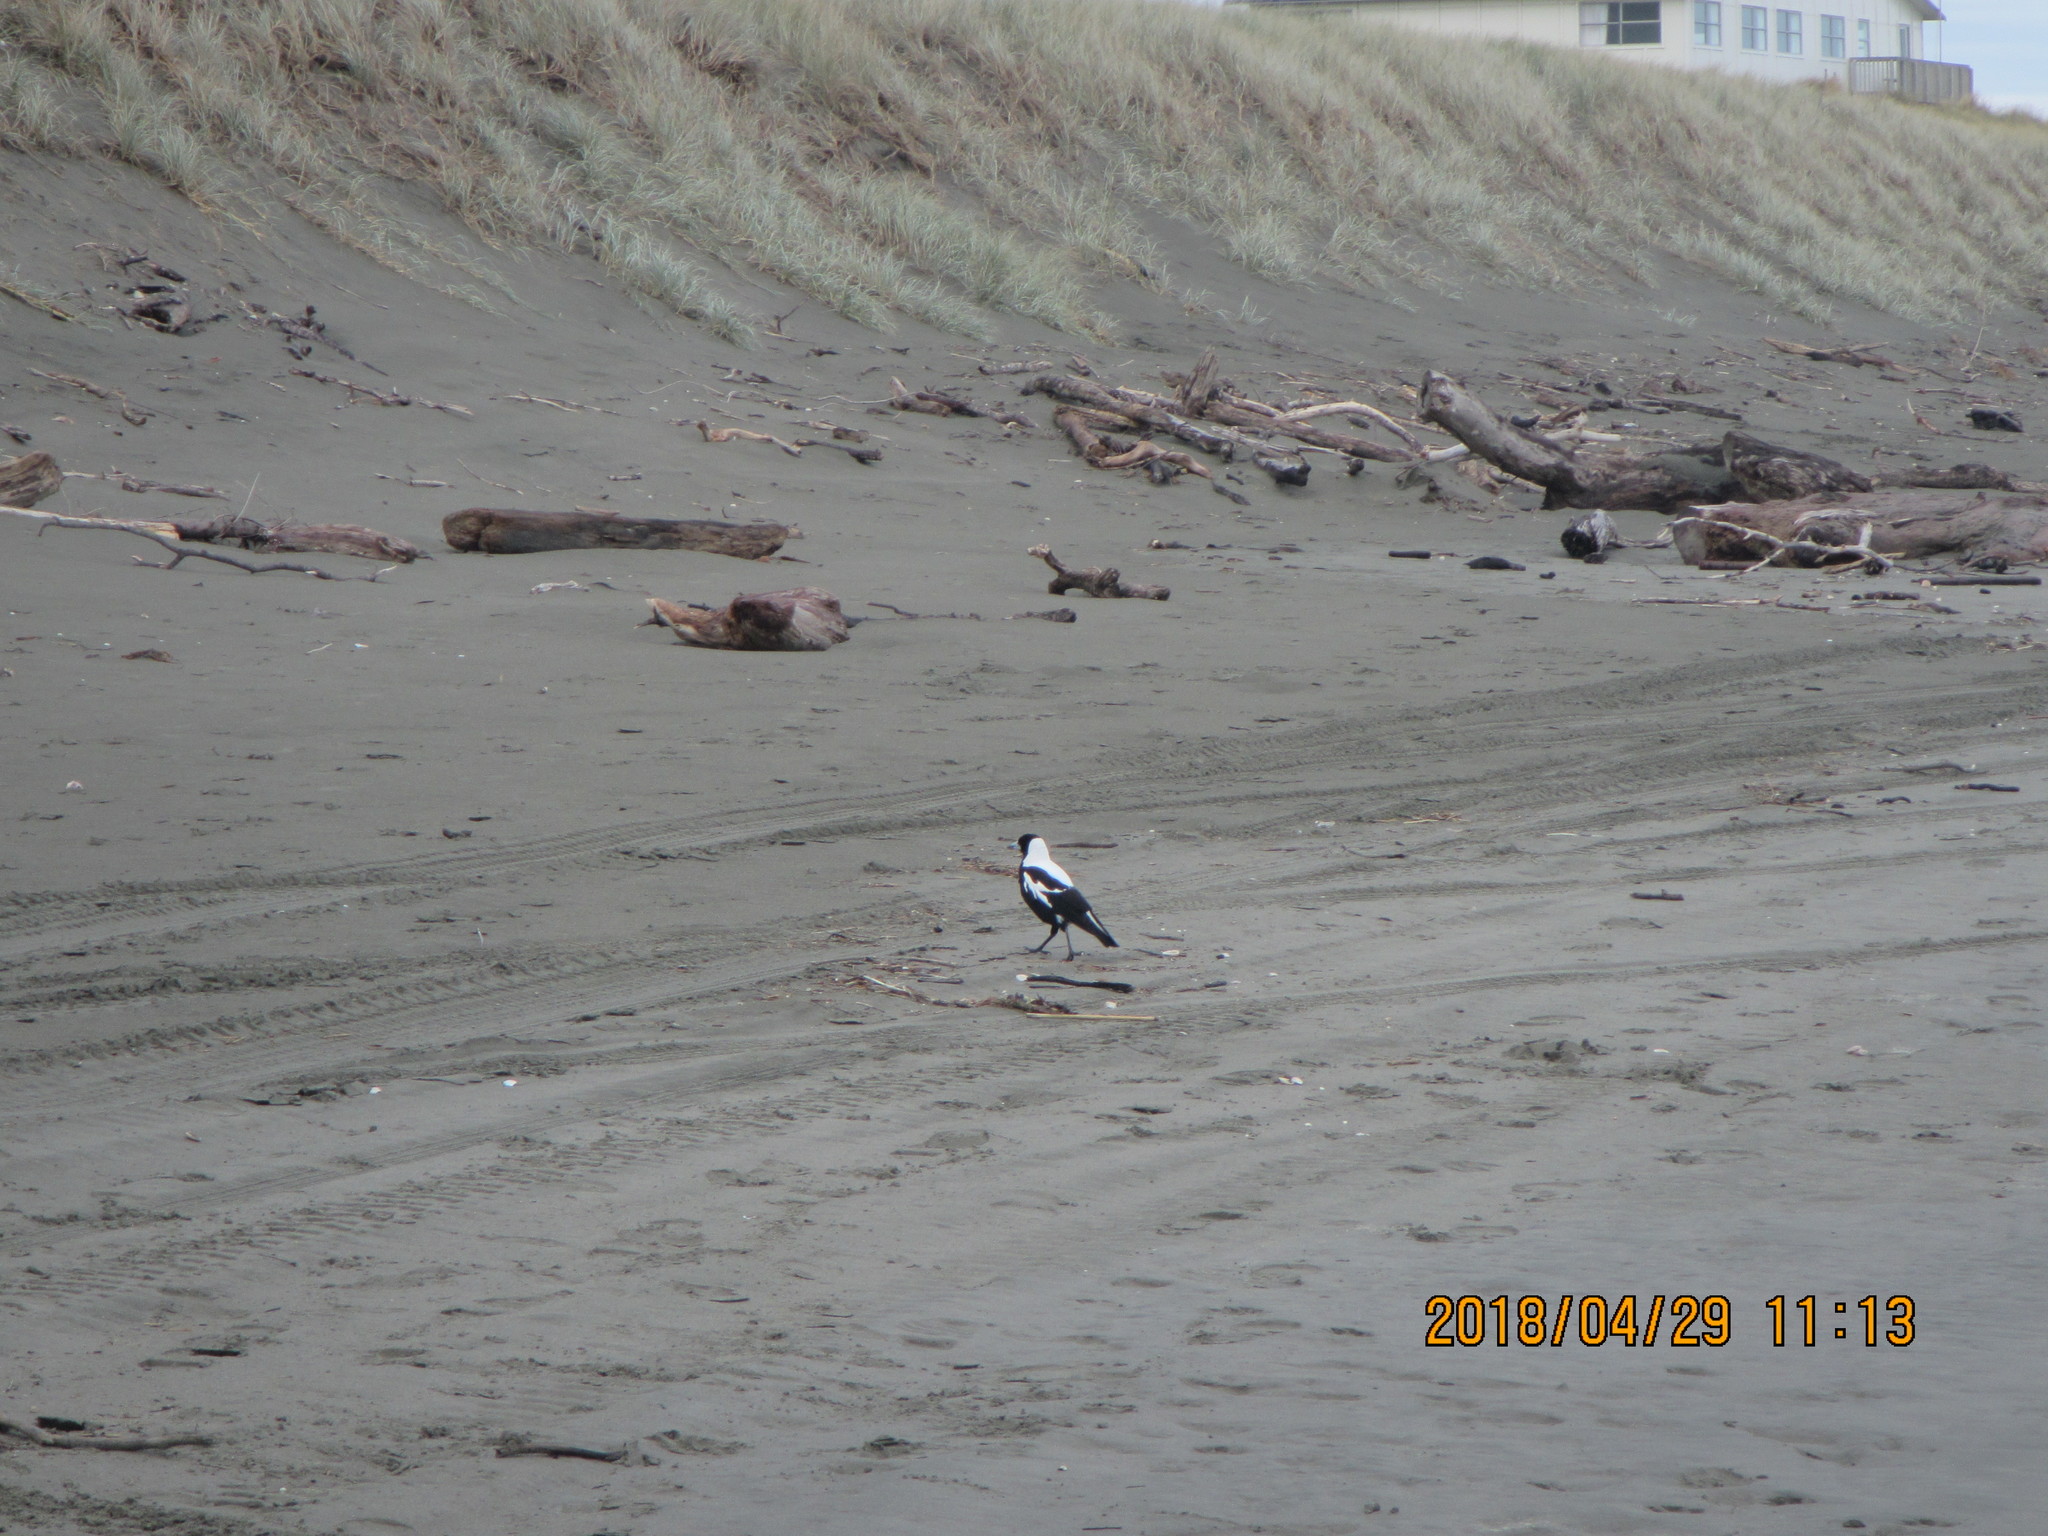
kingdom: Animalia
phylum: Chordata
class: Aves
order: Passeriformes
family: Cracticidae
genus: Gymnorhina
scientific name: Gymnorhina tibicen
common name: Australian magpie
